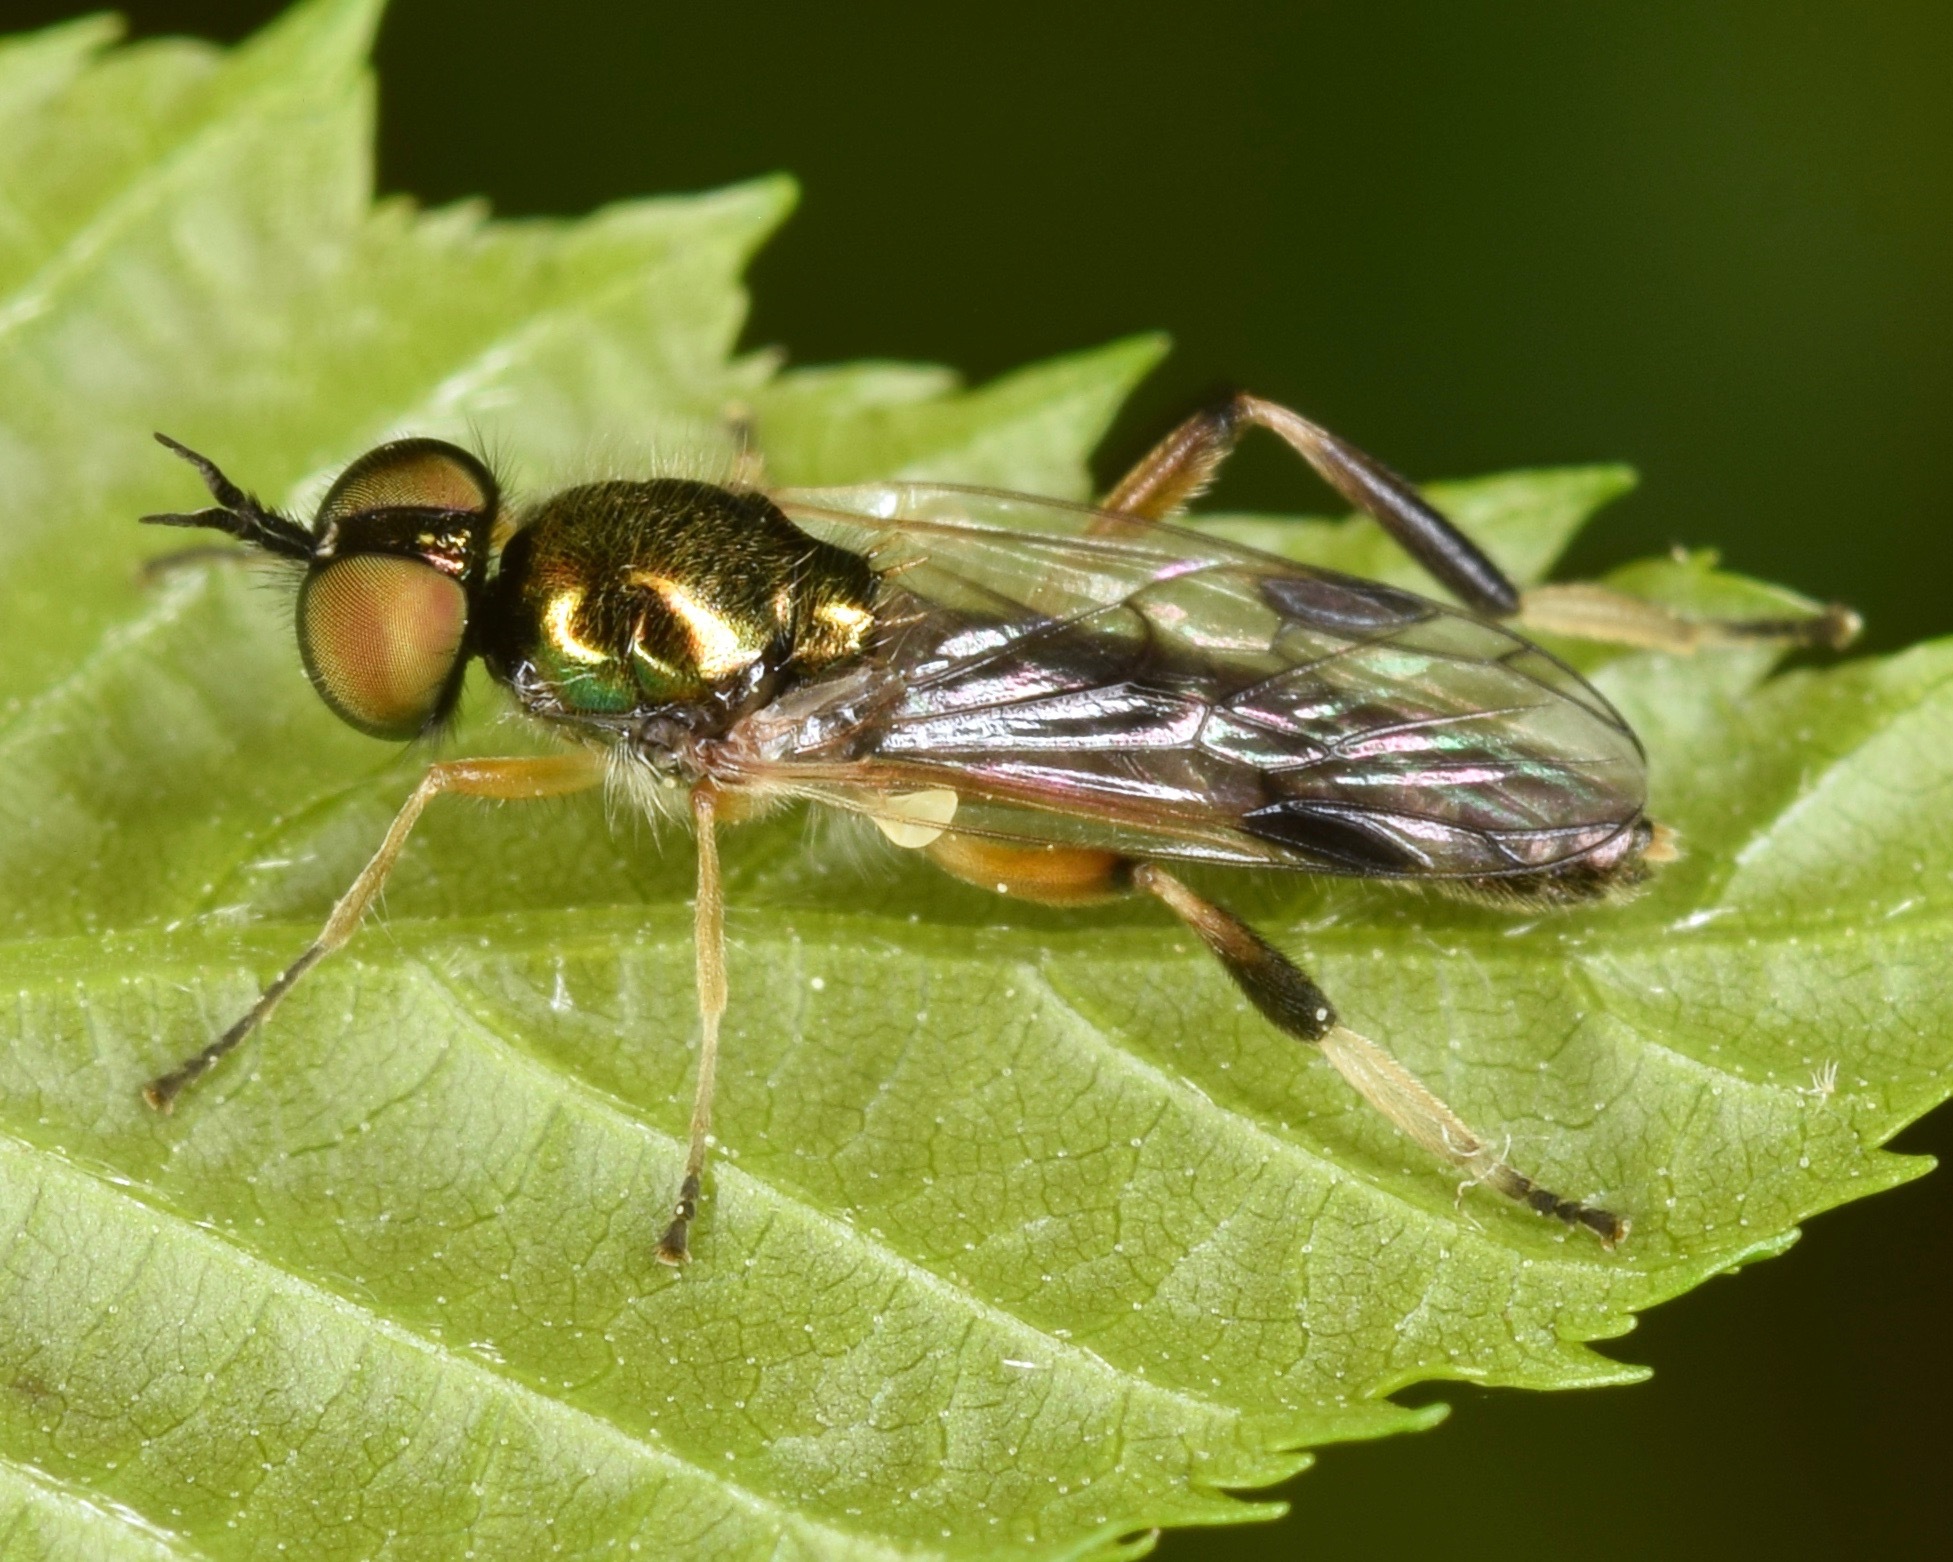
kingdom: Animalia
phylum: Arthropoda
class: Insecta
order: Diptera
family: Stratiomyidae
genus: Actina
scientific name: Actina viridis
